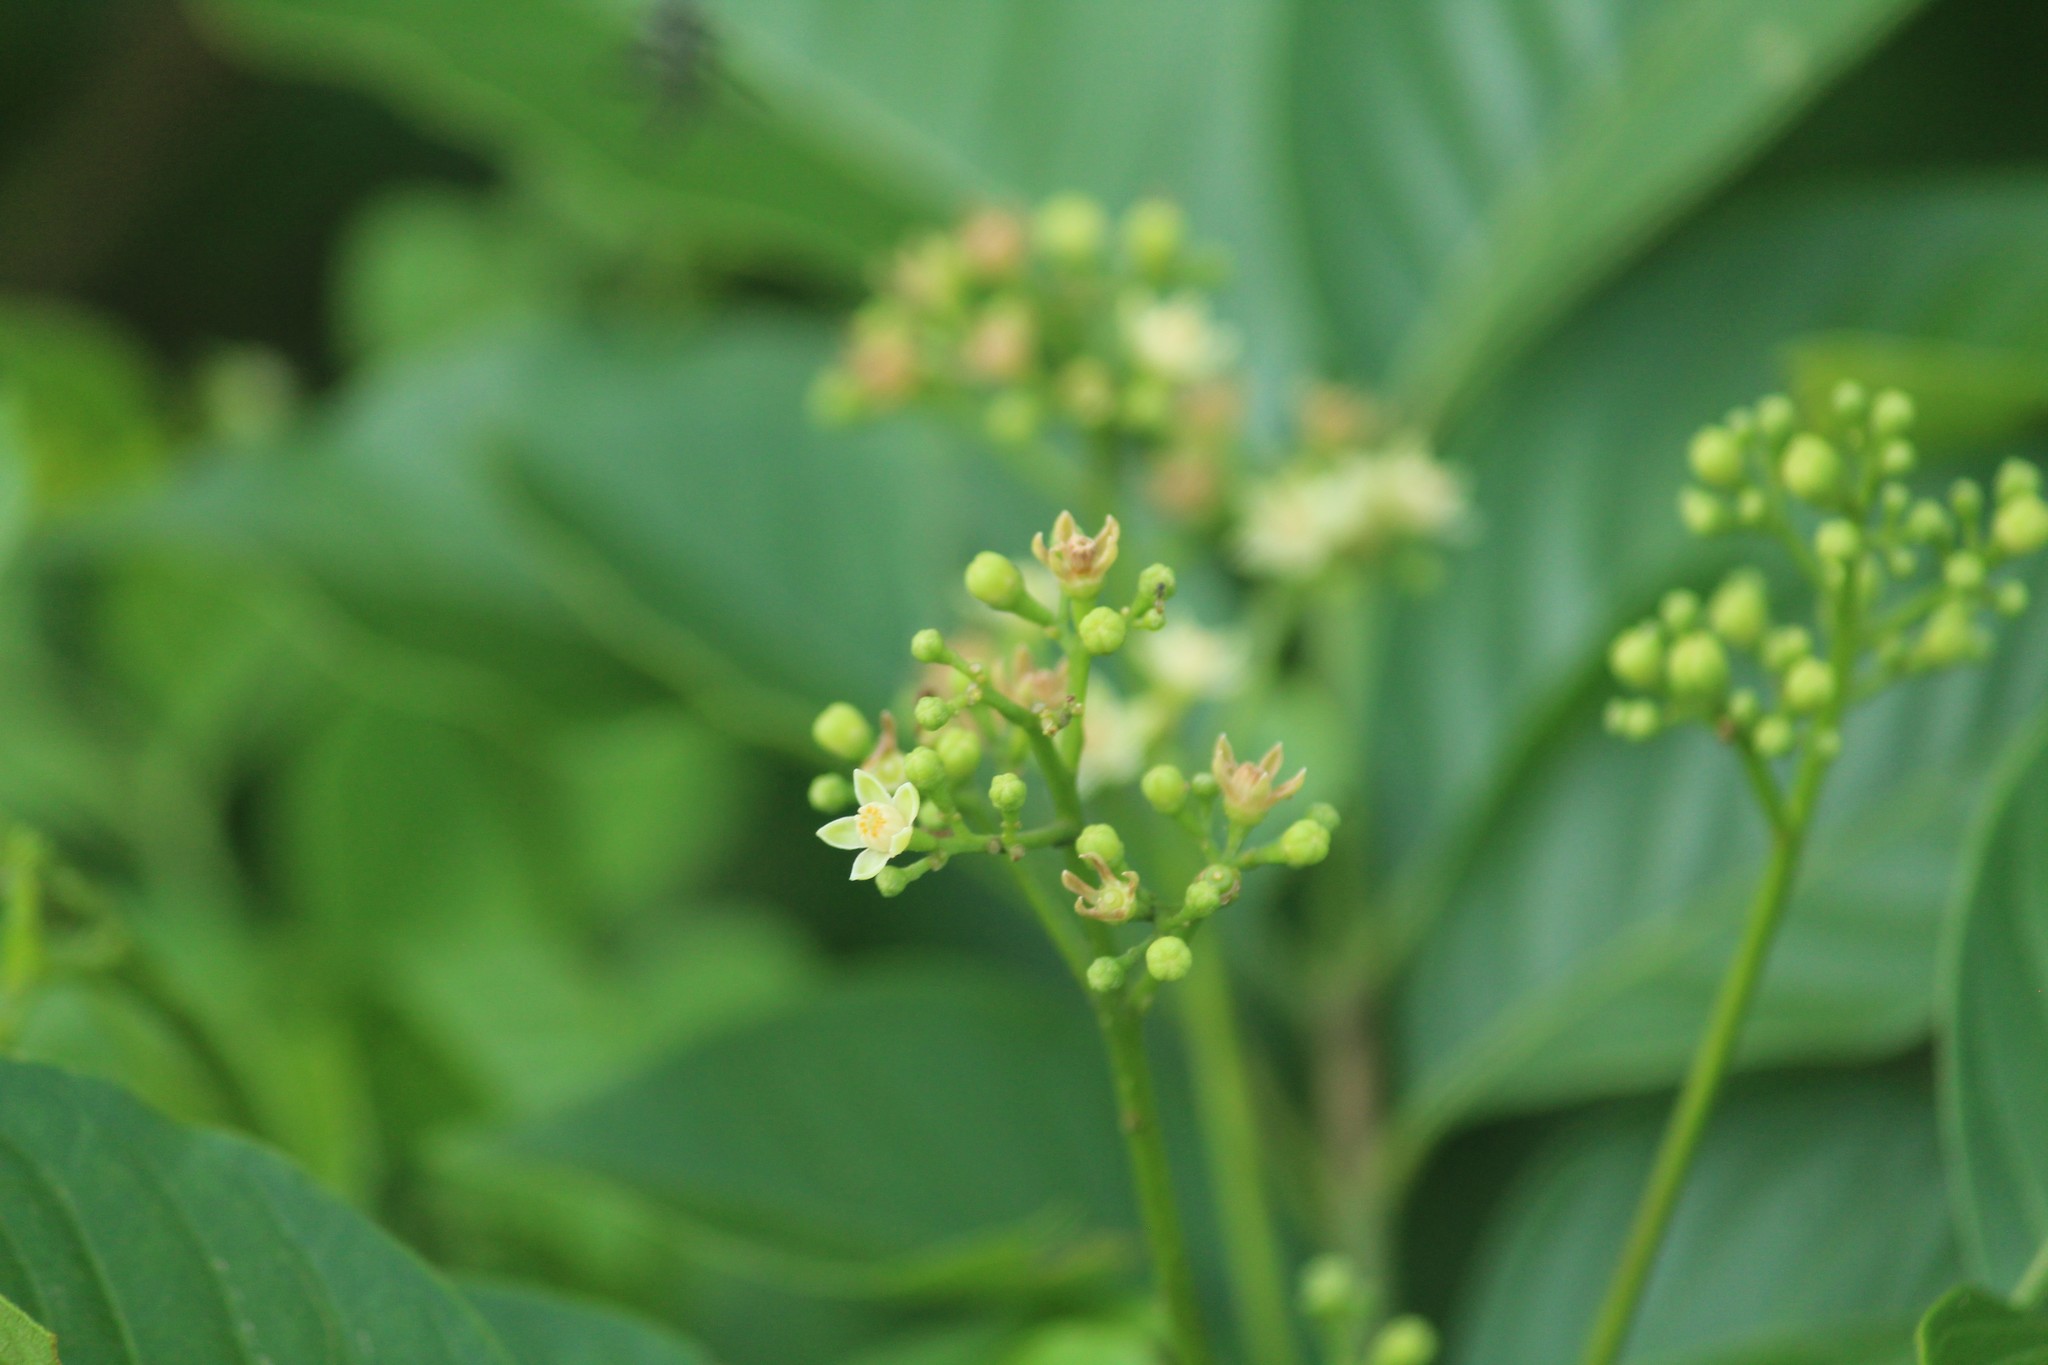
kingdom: Plantae
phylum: Tracheophyta
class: Magnoliopsida
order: Sapindales
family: Meliaceae
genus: Cipadessa
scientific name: Cipadessa baccifera
